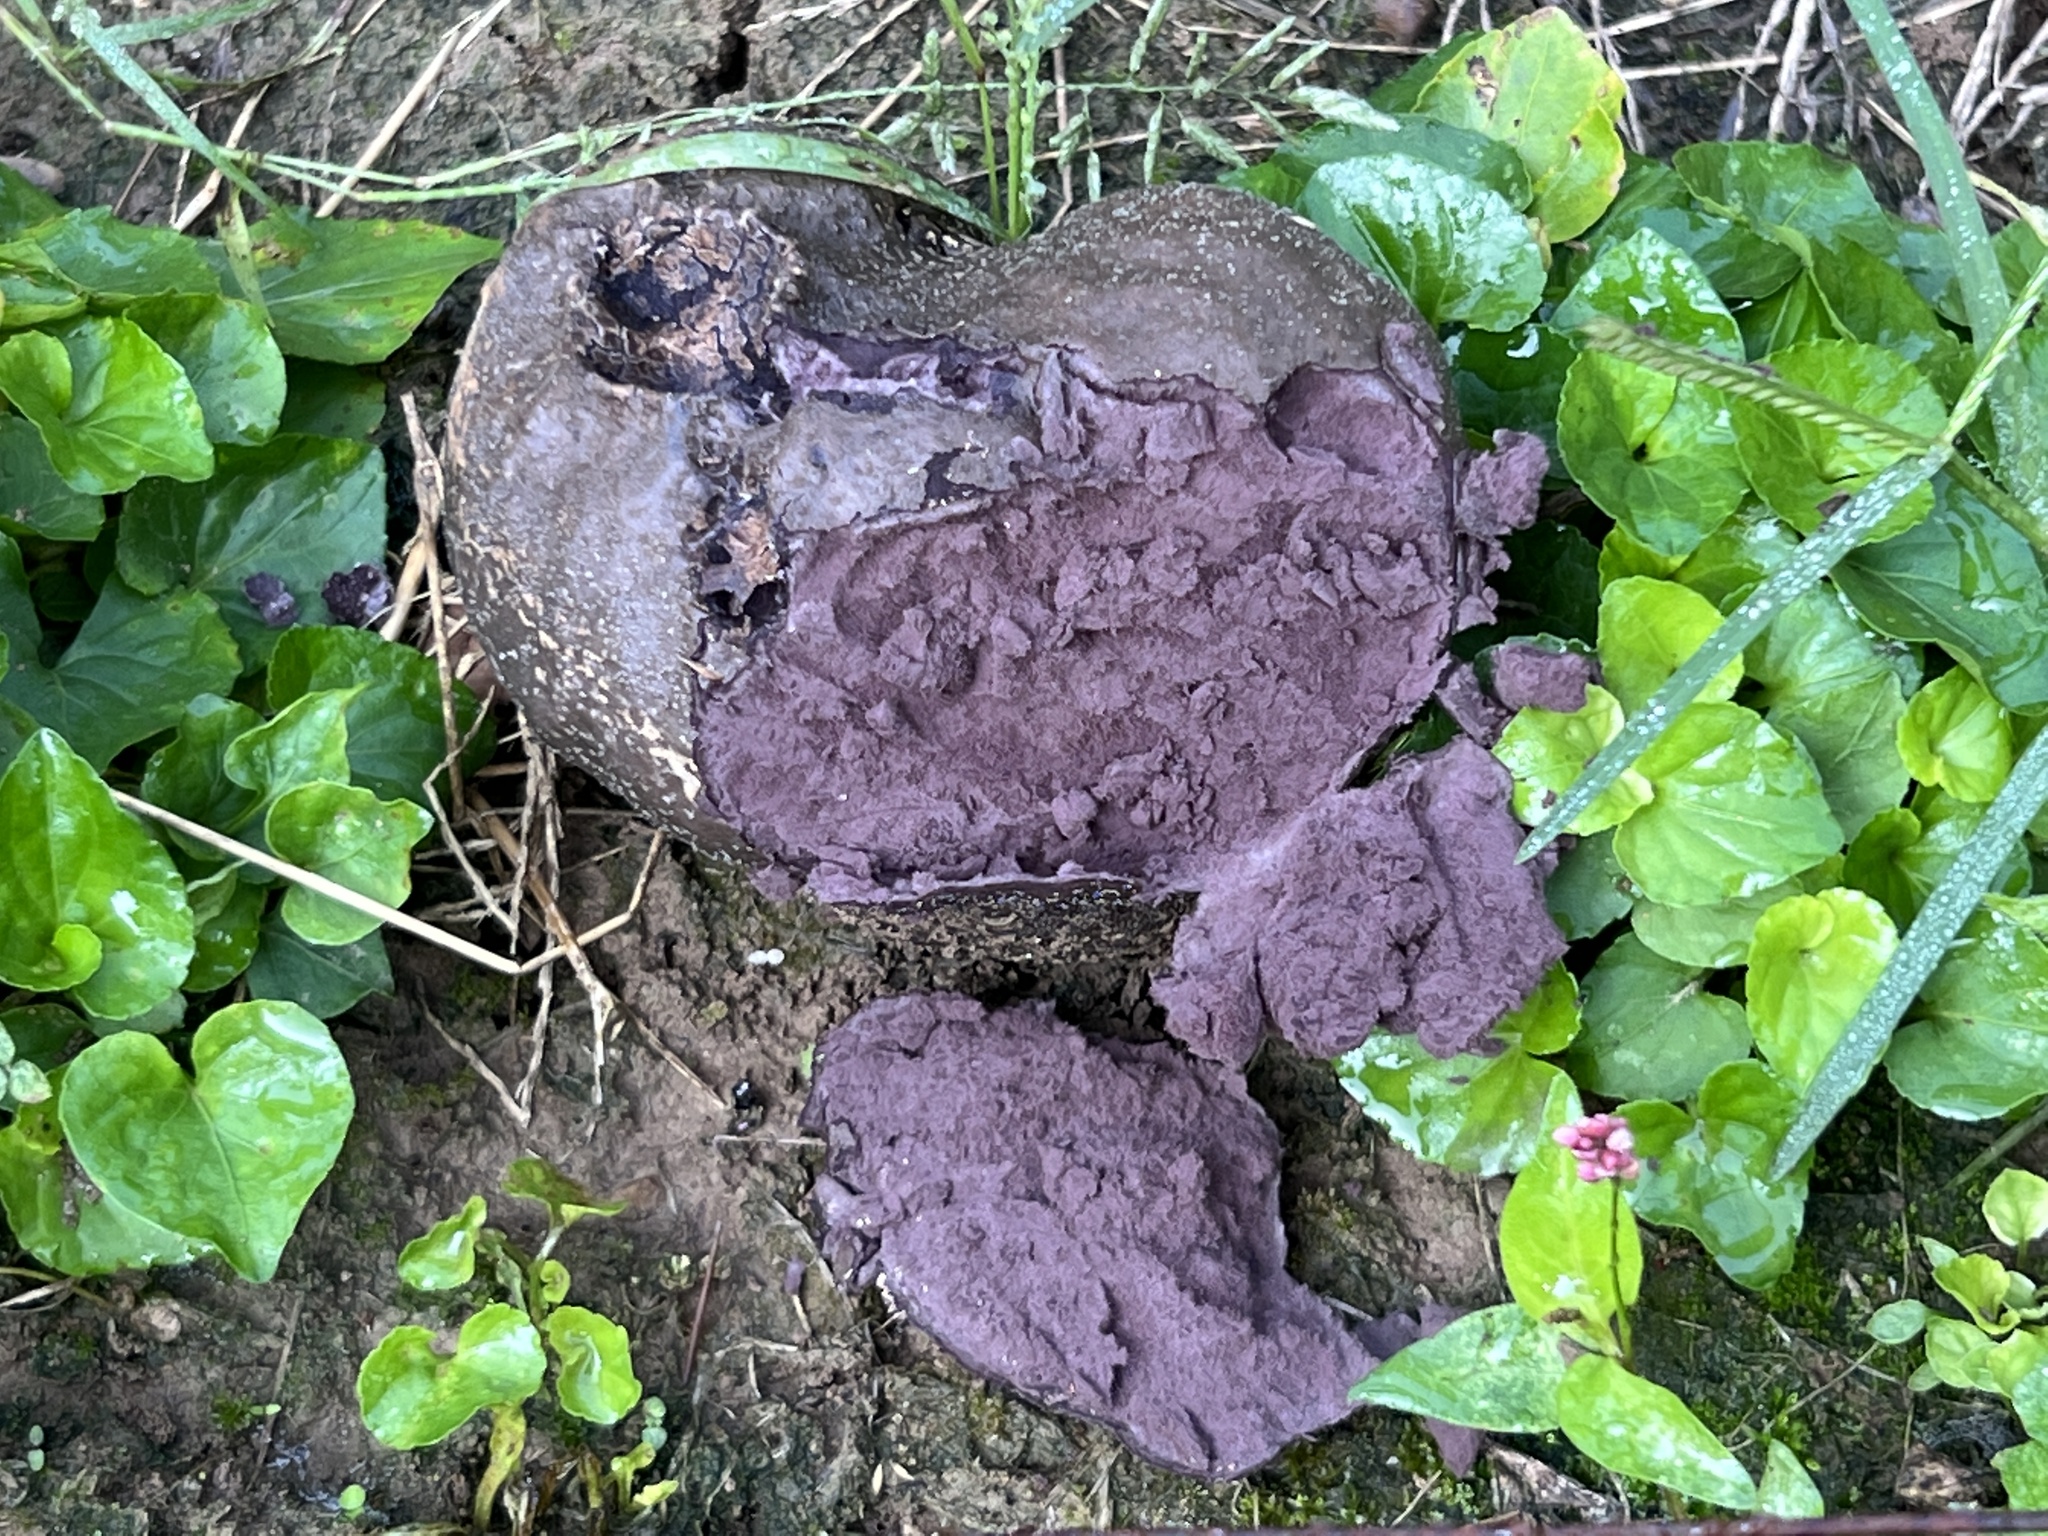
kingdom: Fungi
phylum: Basidiomycota
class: Agaricomycetes
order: Agaricales
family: Lycoperdaceae
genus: Calvatia
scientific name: Calvatia cyathiformis
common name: Purple-spored puffball
